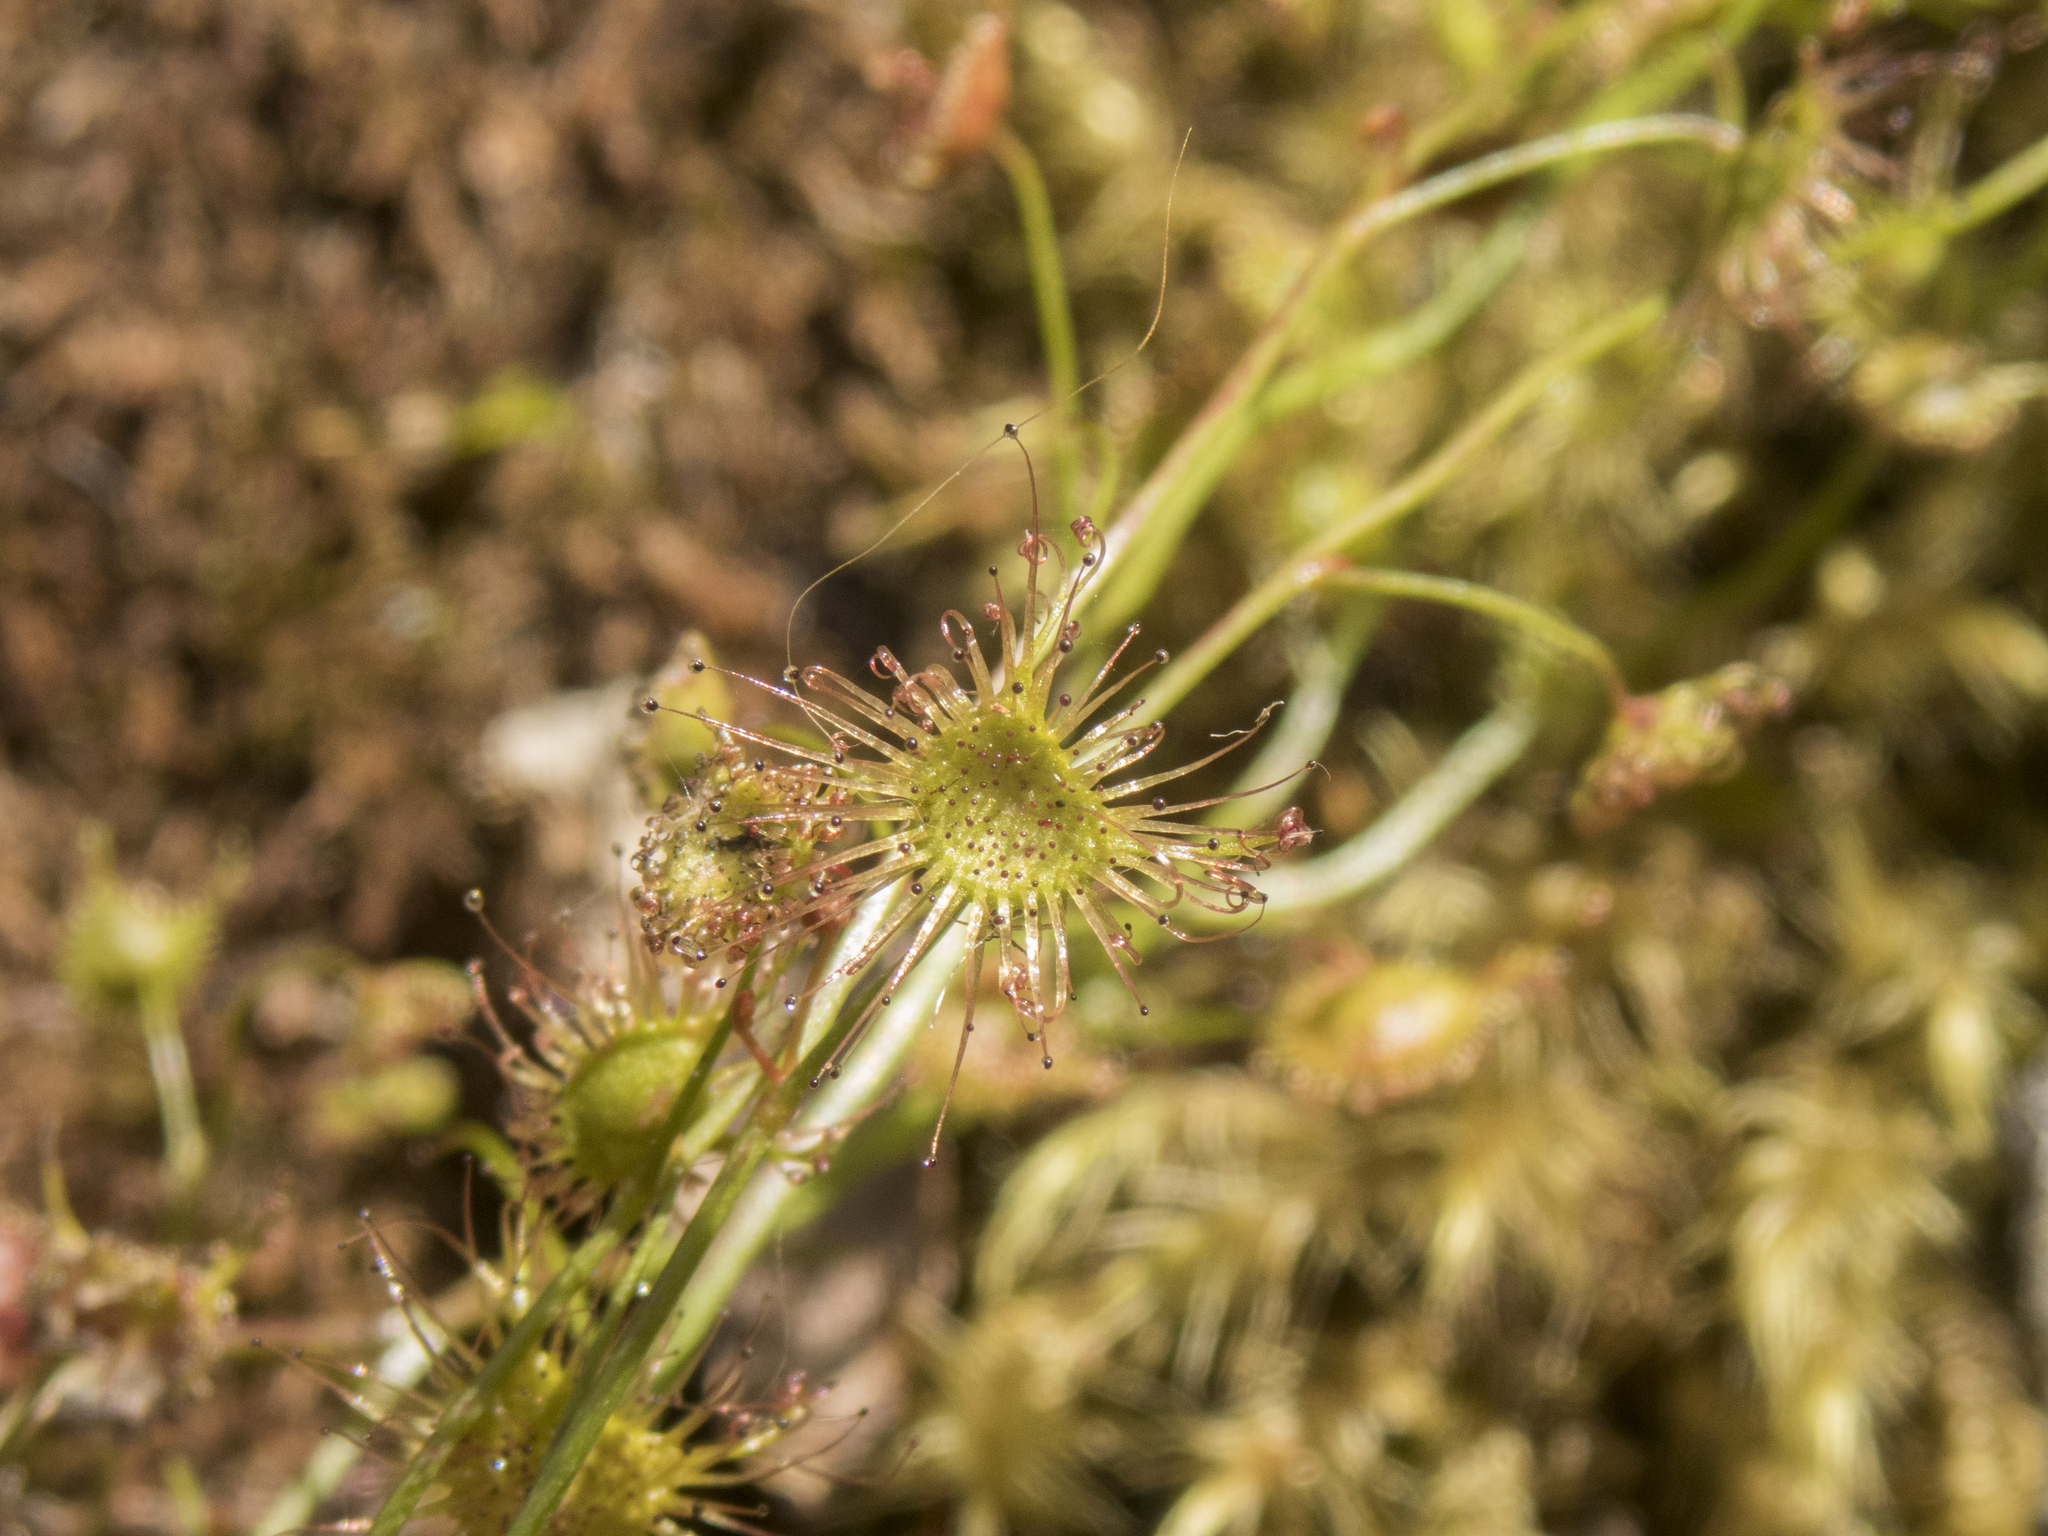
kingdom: Plantae
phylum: Tracheophyta
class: Magnoliopsida
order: Caryophyllales
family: Droseraceae
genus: Drosera
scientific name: Drosera peltata
